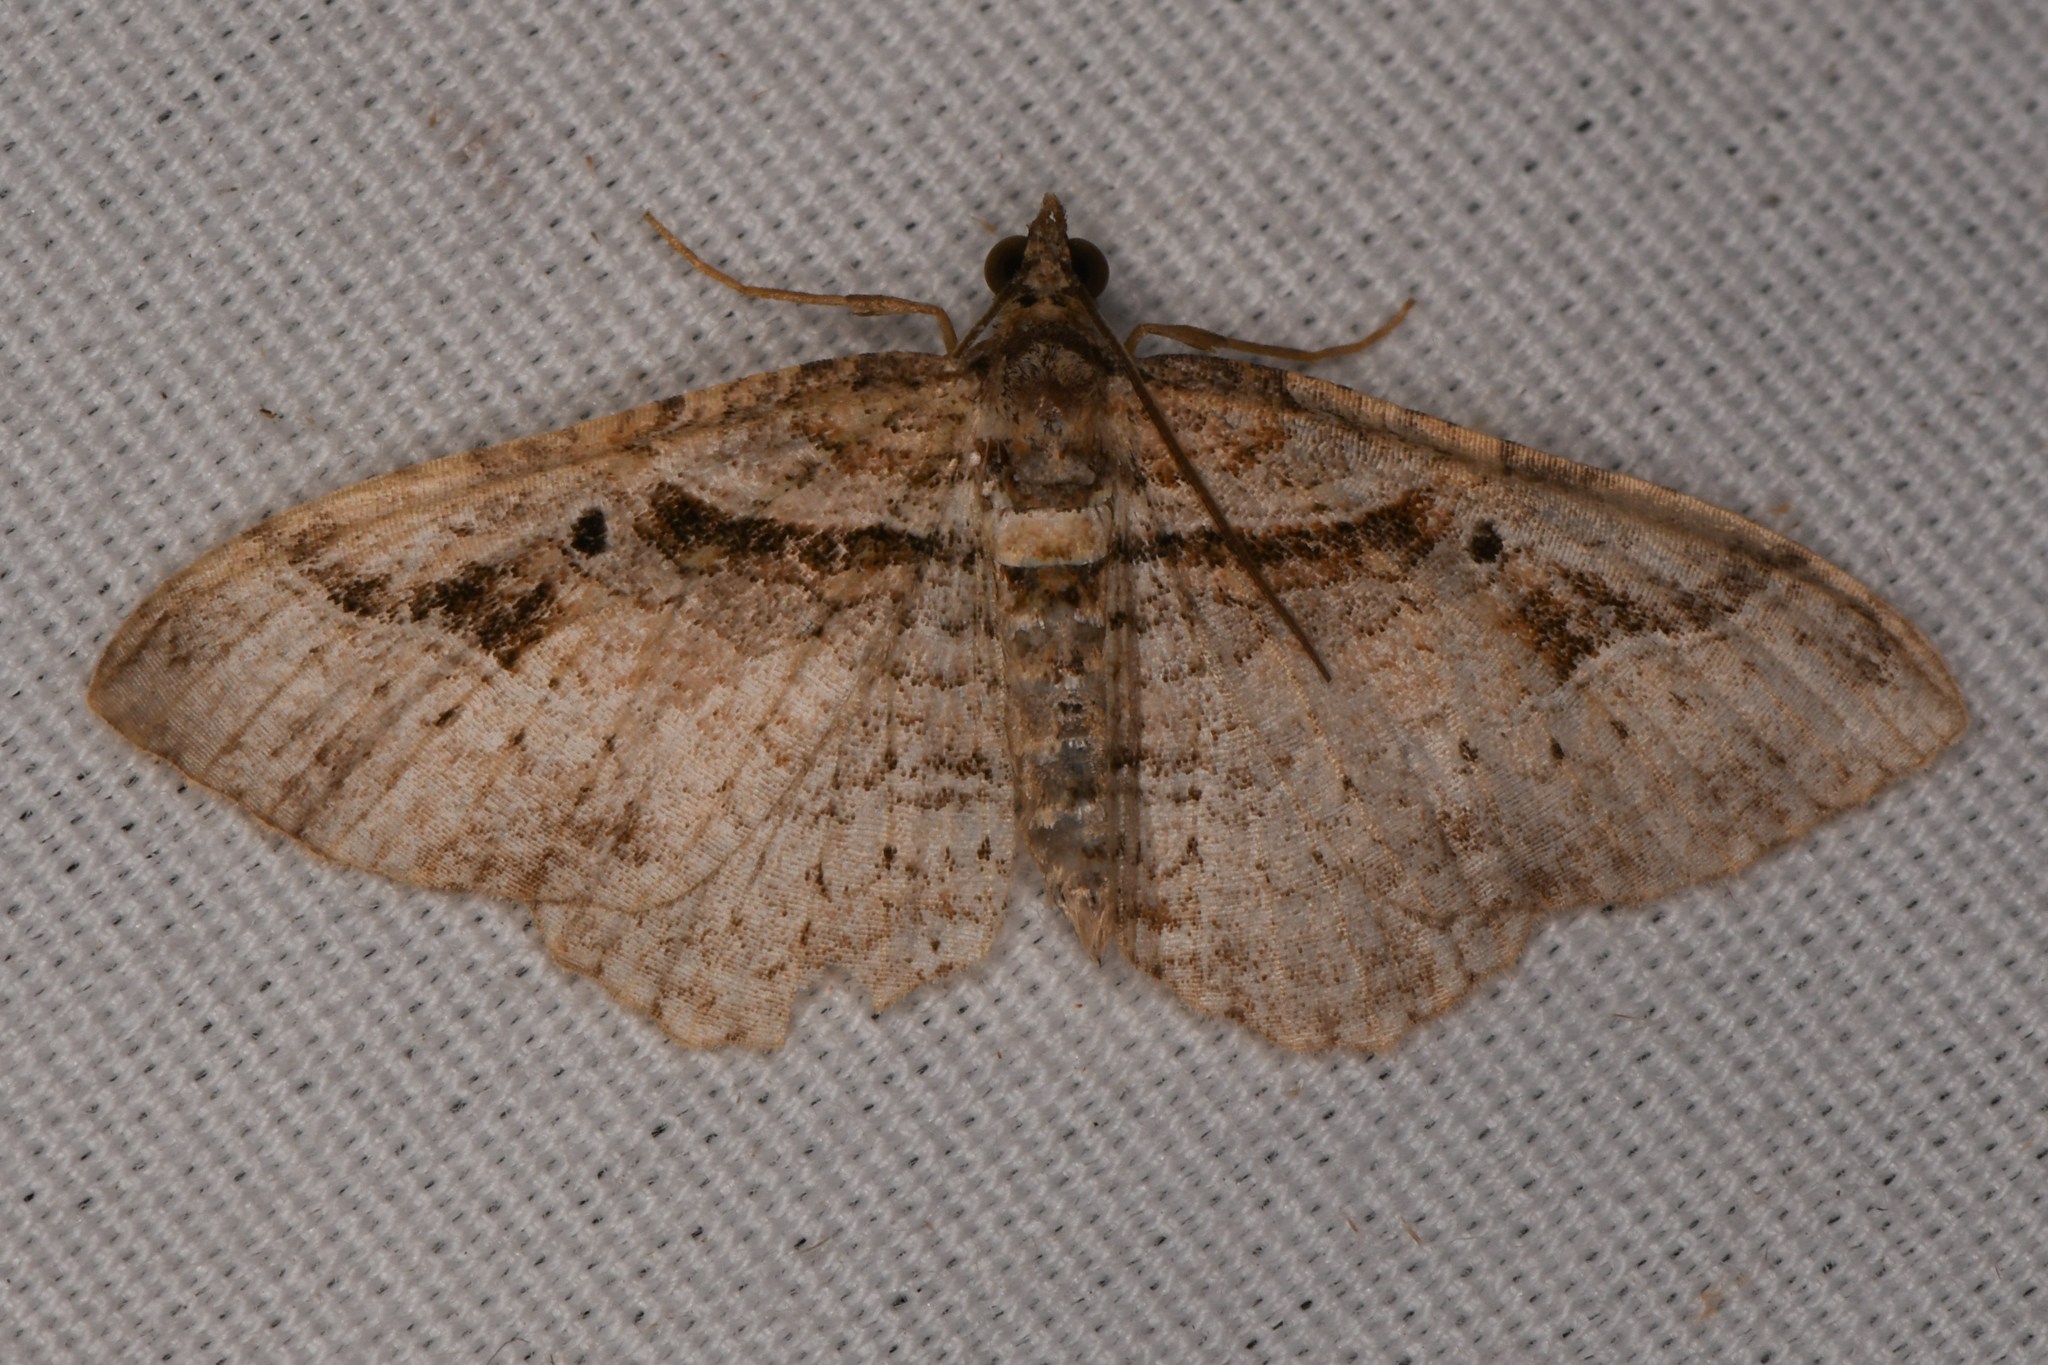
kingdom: Animalia
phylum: Arthropoda
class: Insecta
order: Lepidoptera
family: Geometridae
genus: Costaconvexa
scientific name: Costaconvexa centrostrigaria
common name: Bent-line carpet
